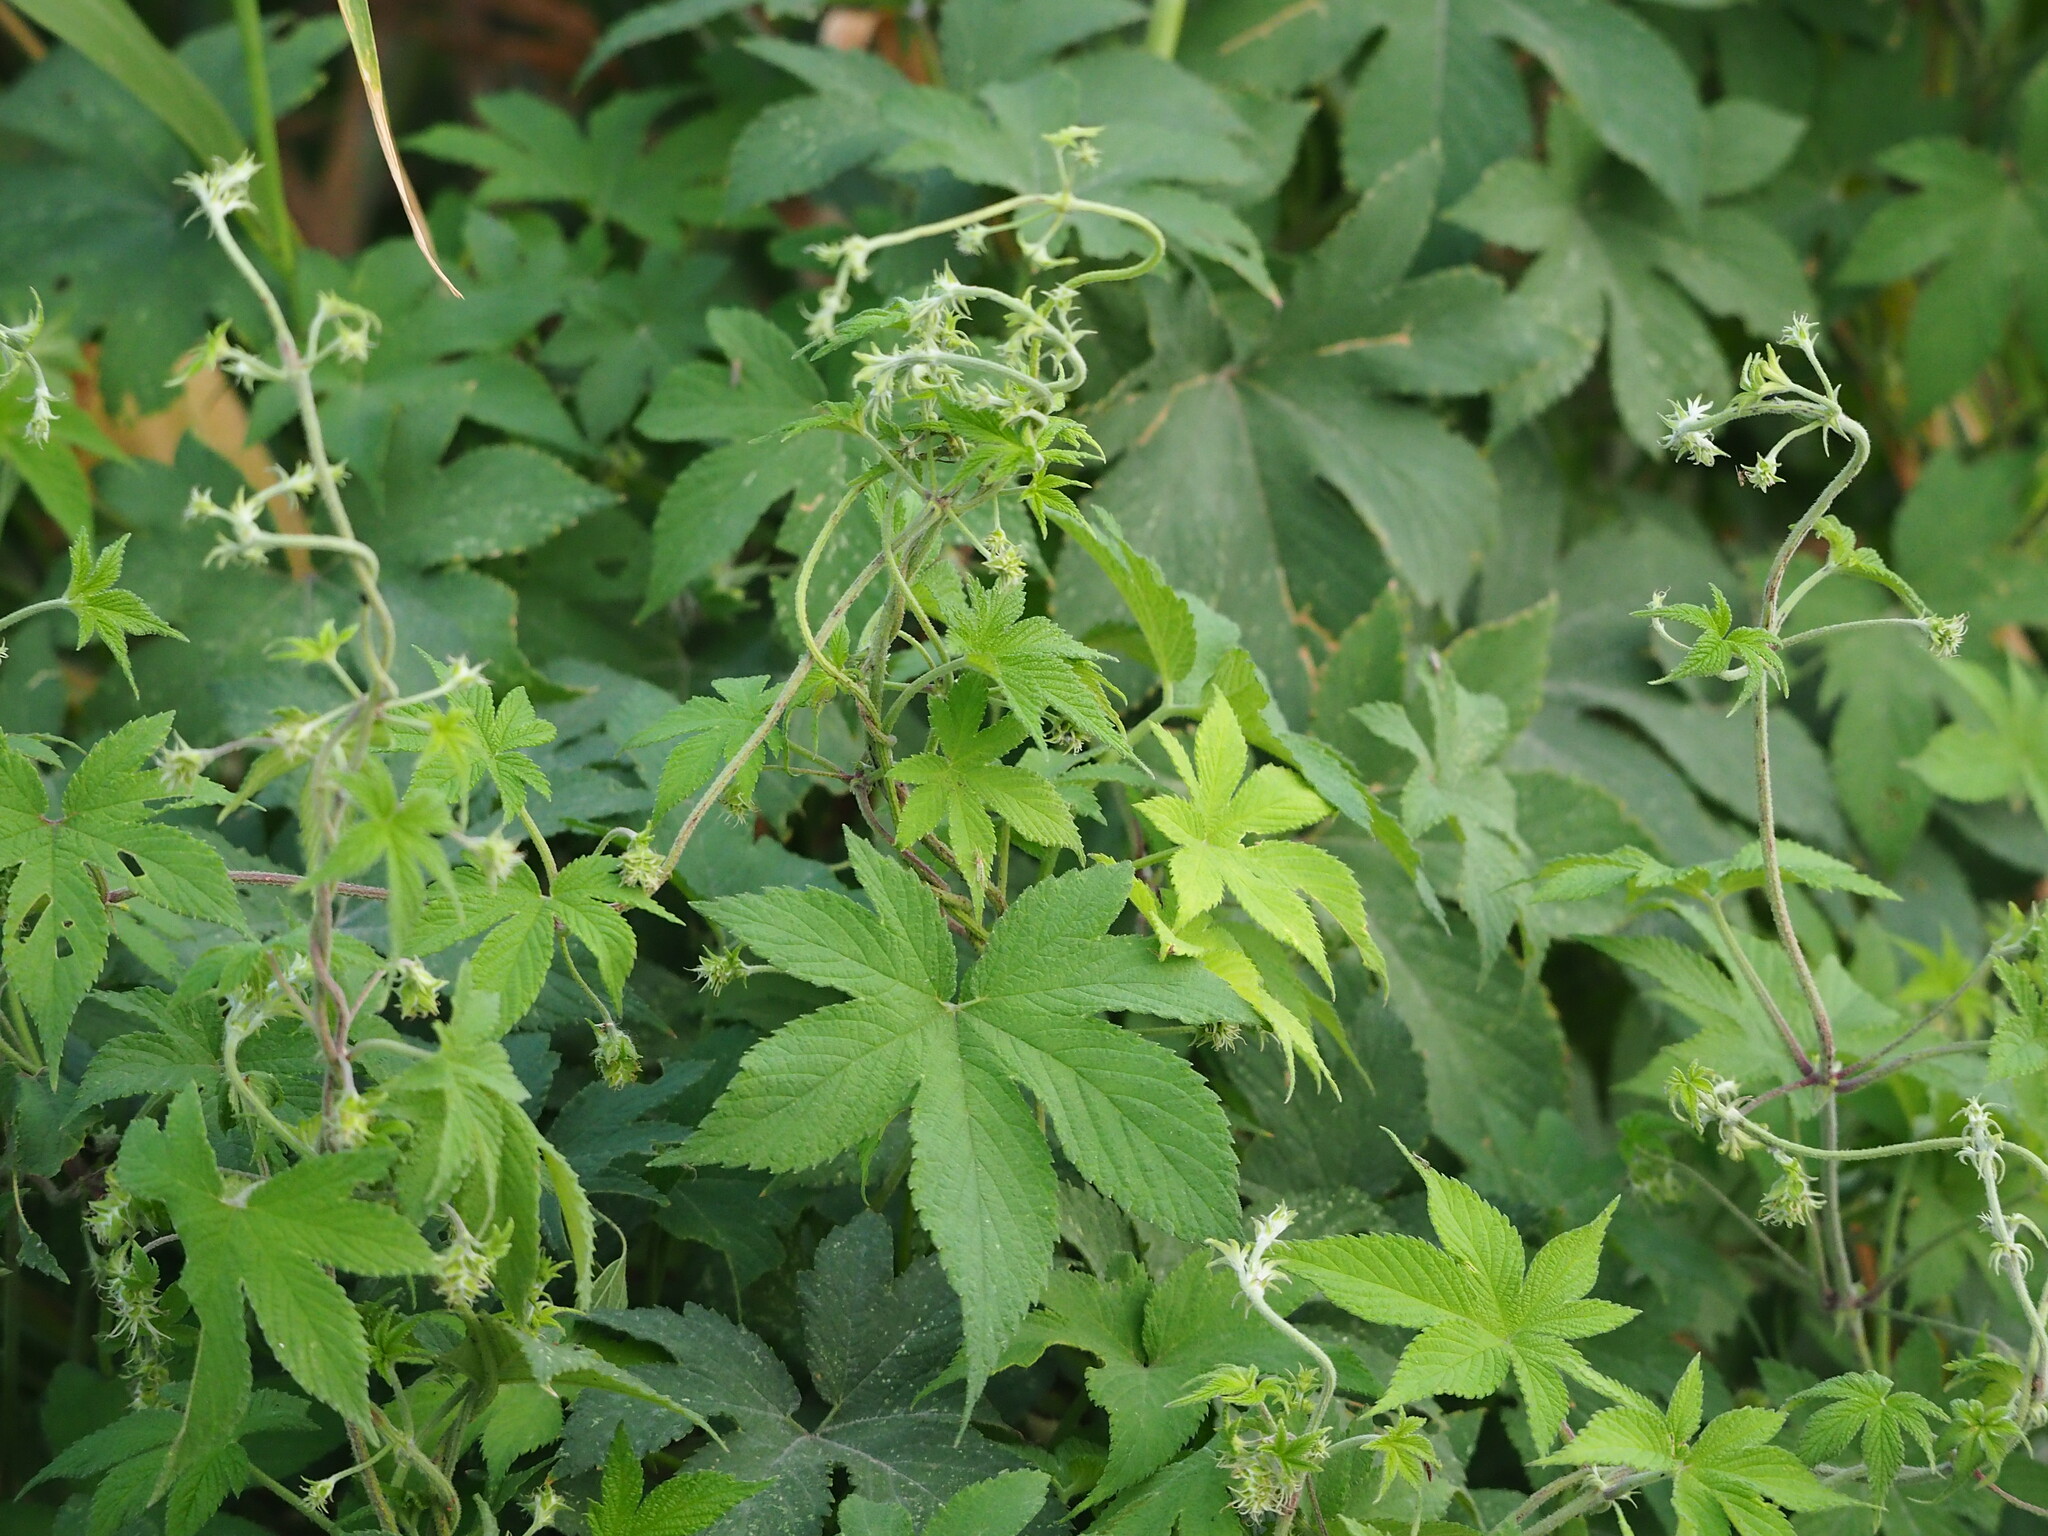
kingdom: Plantae
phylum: Tracheophyta
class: Magnoliopsida
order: Rosales
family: Cannabaceae
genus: Humulus
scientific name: Humulus scandens
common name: Japanese hop
